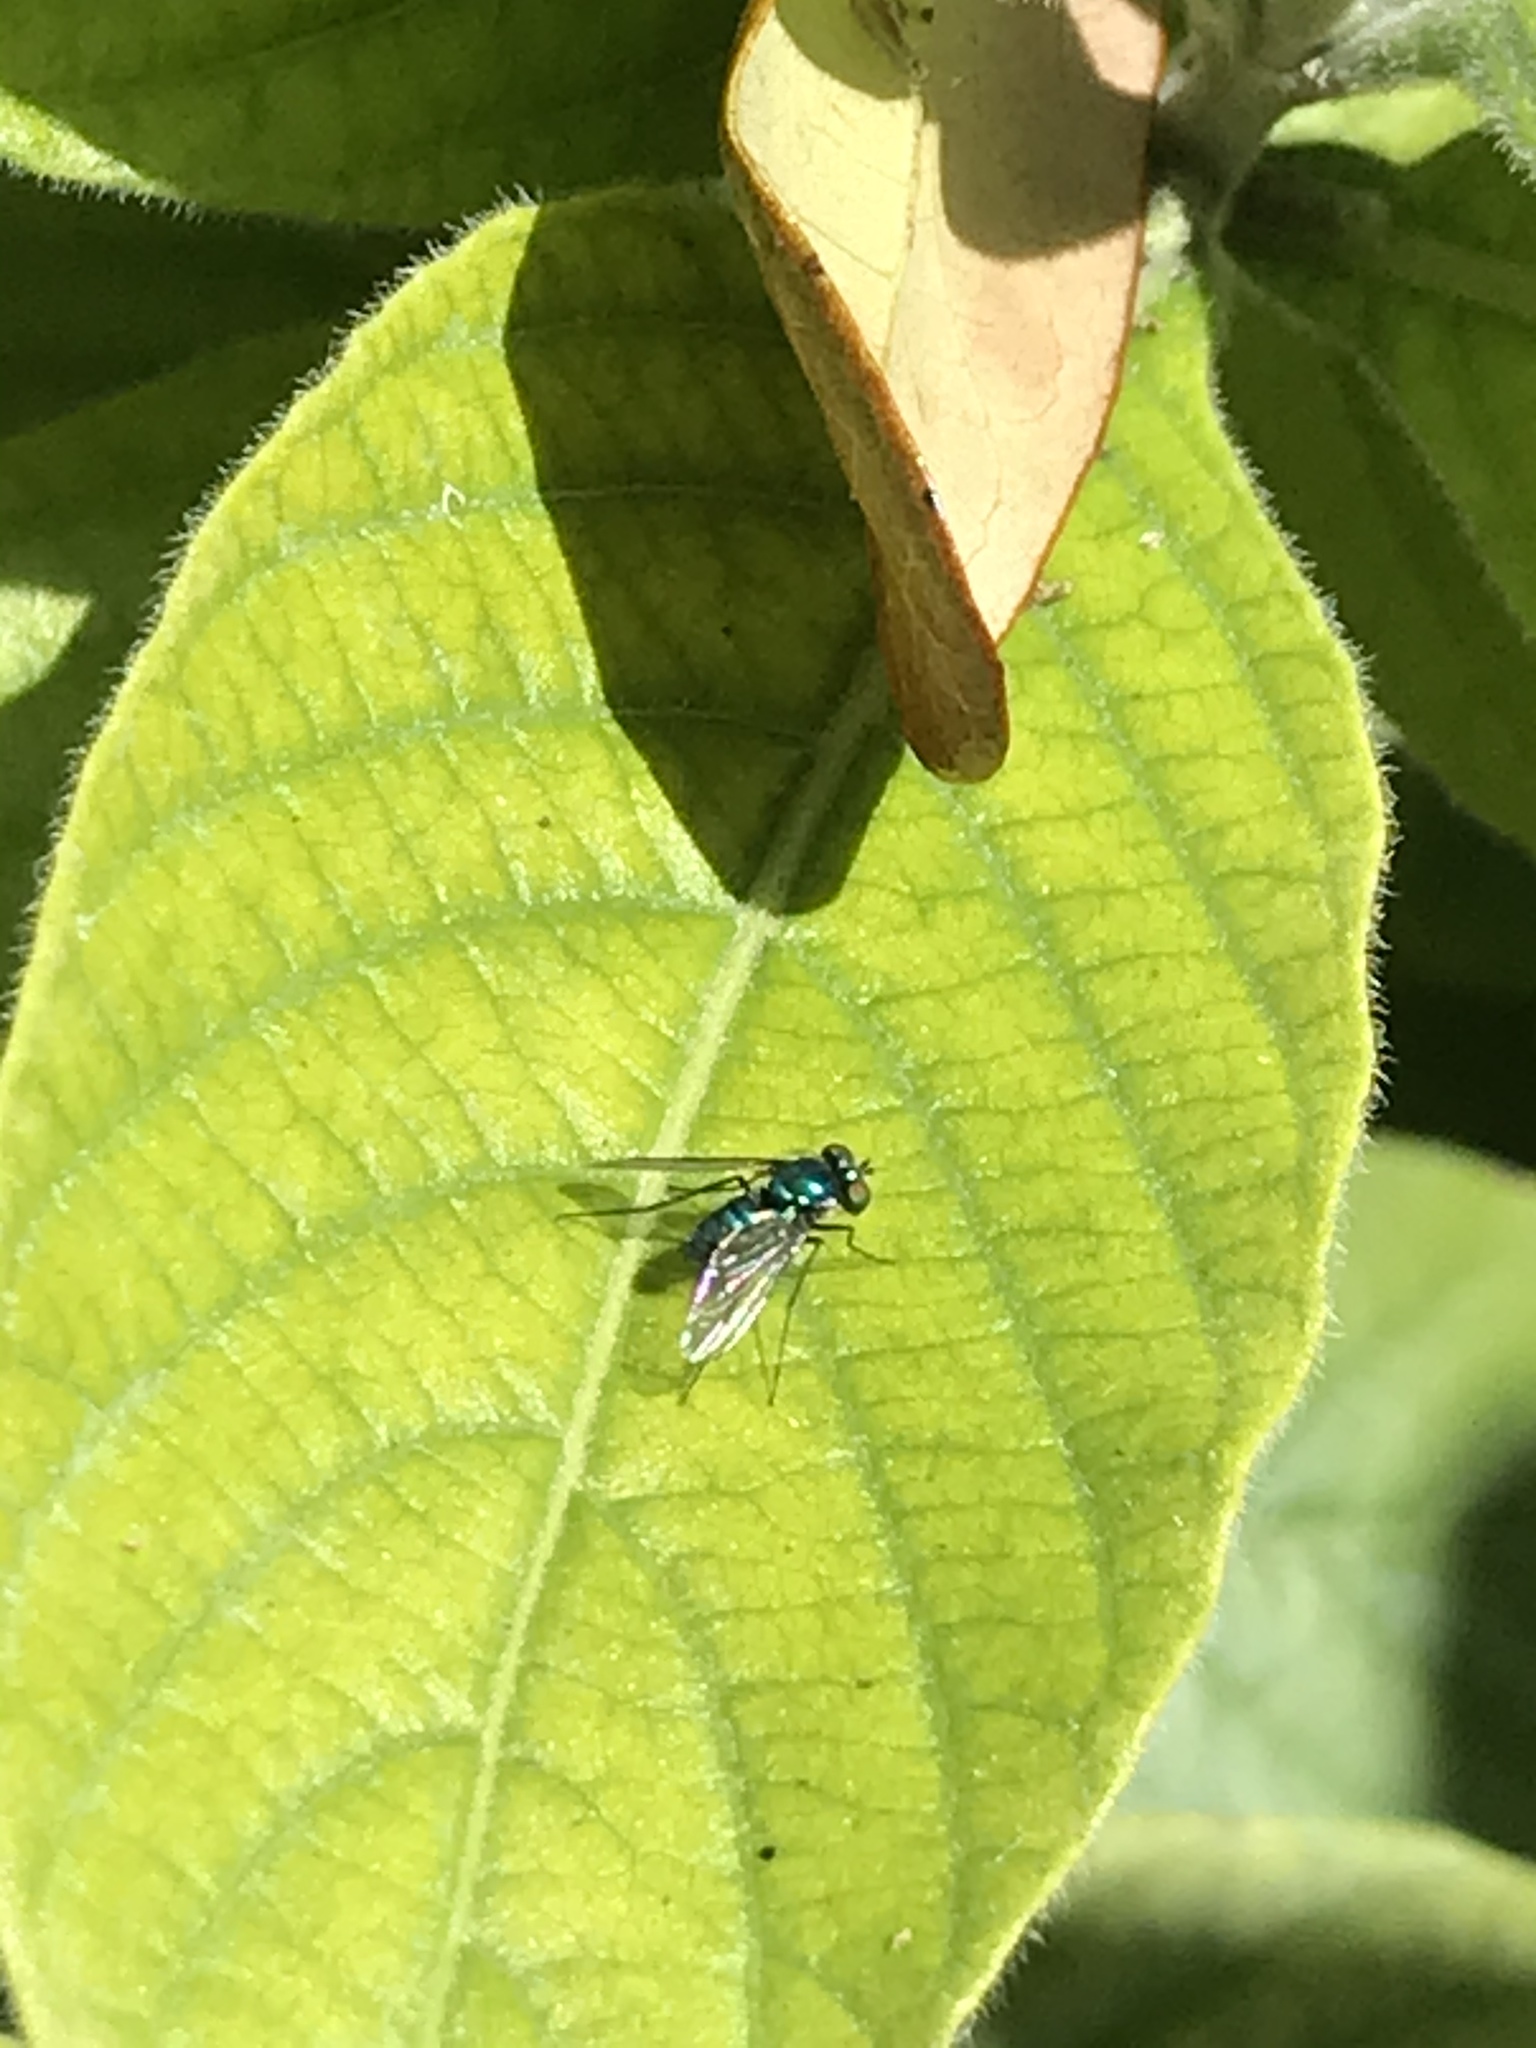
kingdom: Animalia
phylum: Arthropoda
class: Insecta
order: Diptera
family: Dolichopodidae
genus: Condylostylus
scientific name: Condylostylus purpureus
